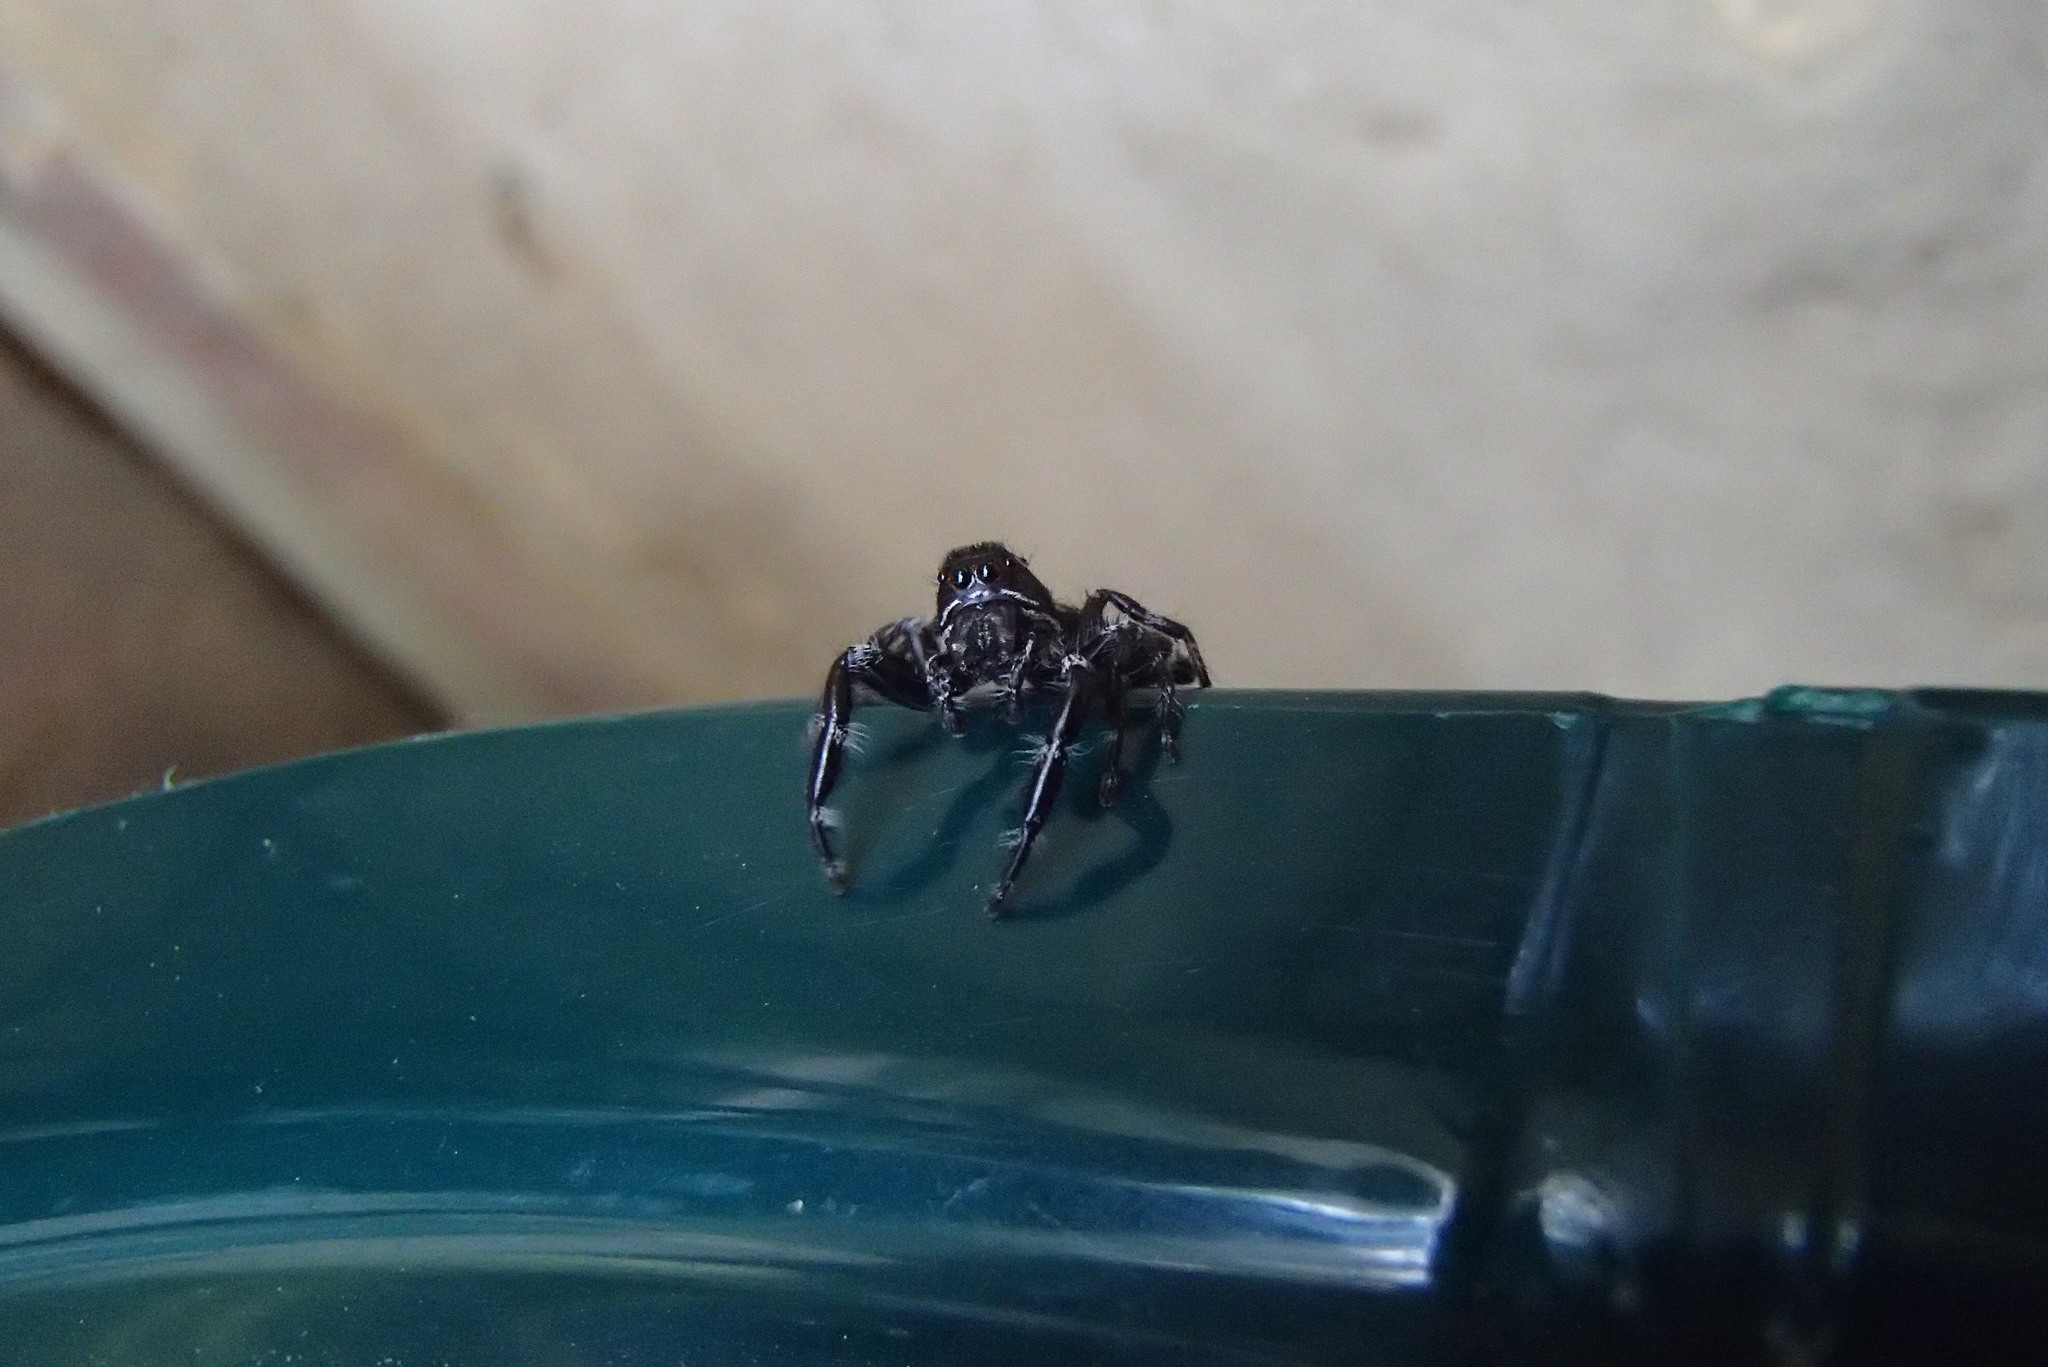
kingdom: Animalia
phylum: Arthropoda
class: Arachnida
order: Araneae
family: Salticidae
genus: Sandalodes
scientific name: Sandalodes superbus
